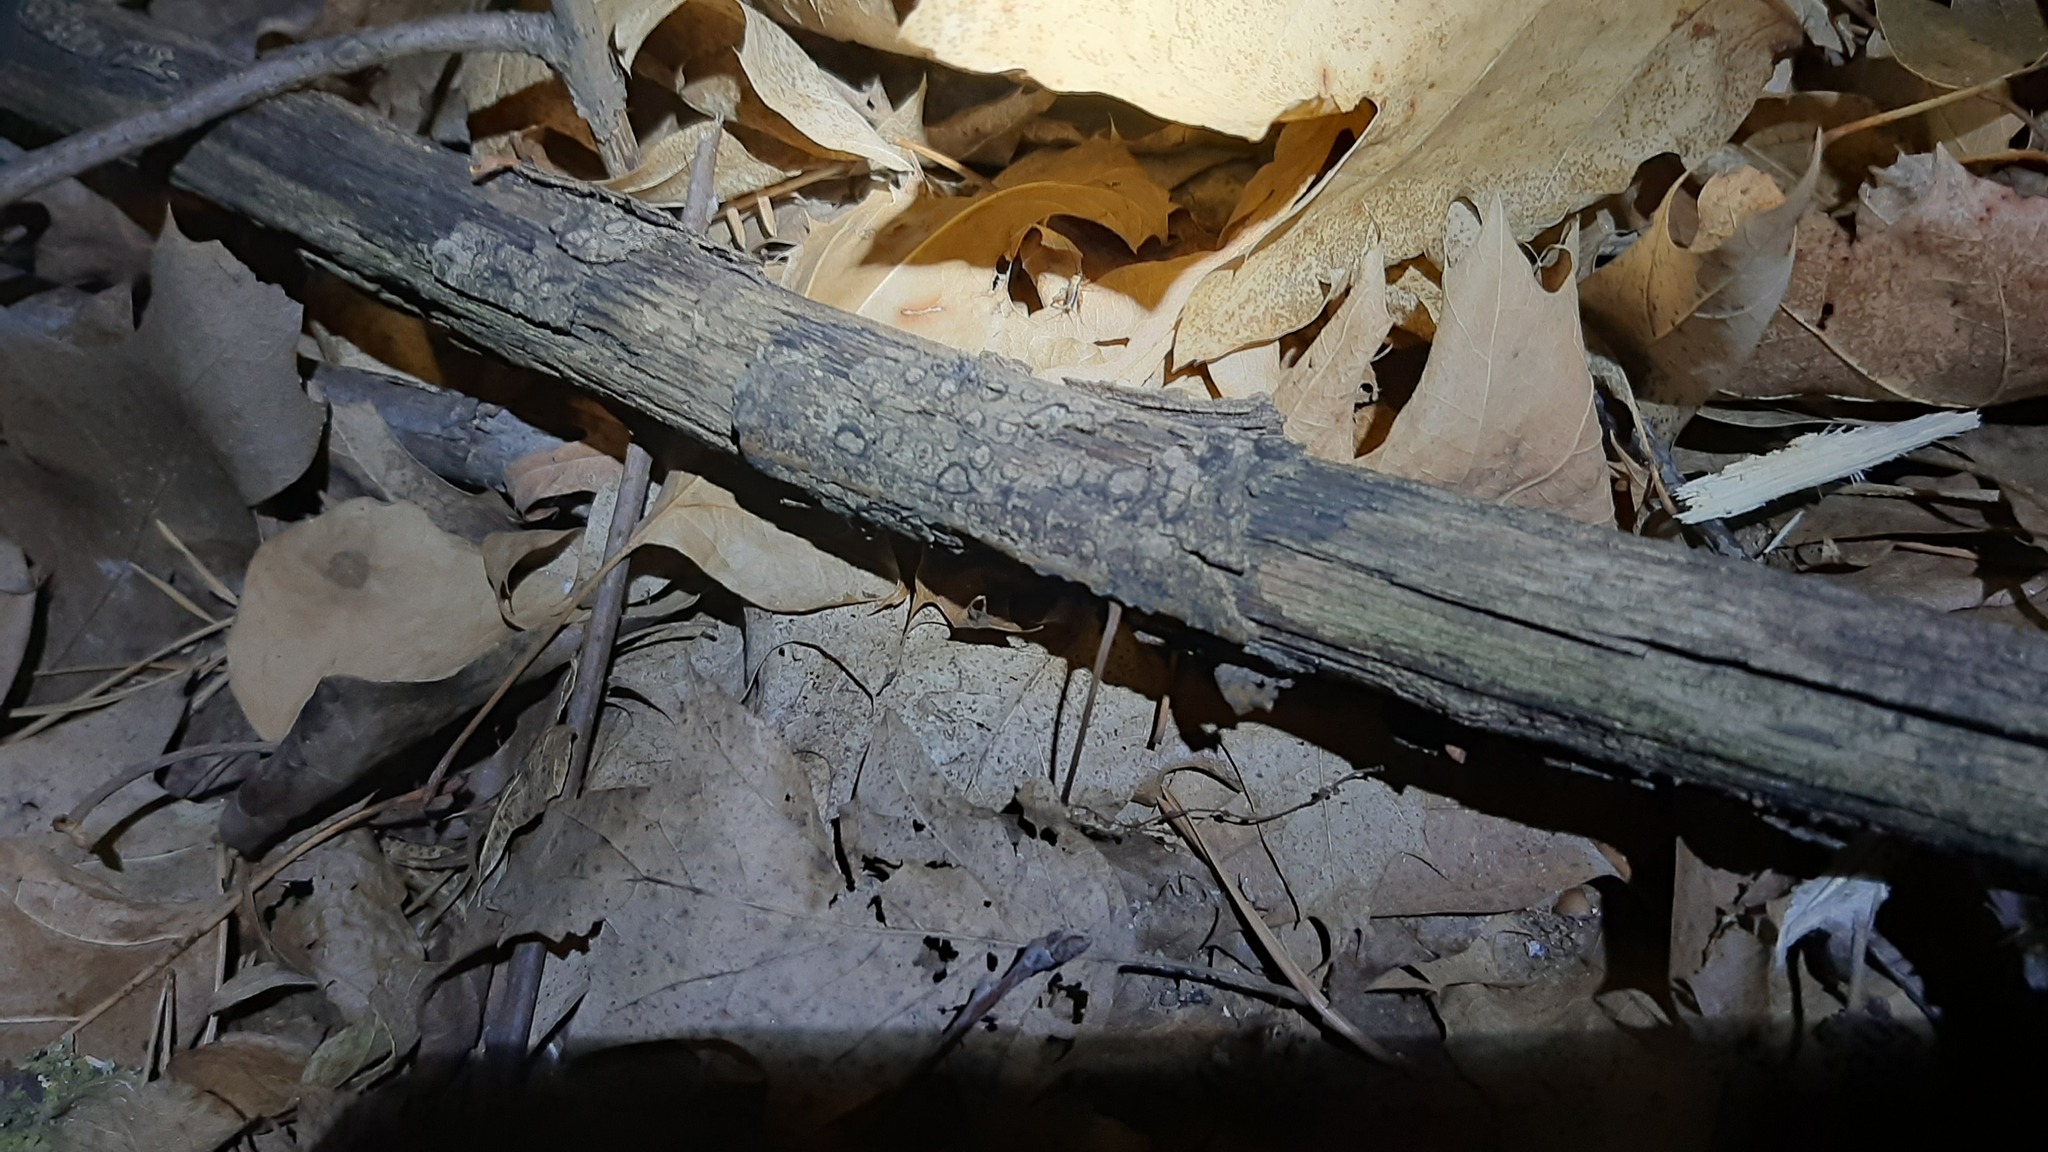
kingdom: Animalia
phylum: Arthropoda
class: Insecta
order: Orthoptera
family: Trigonidiidae
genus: Nemobius
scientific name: Nemobius sylvestris
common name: Wood-cricket
